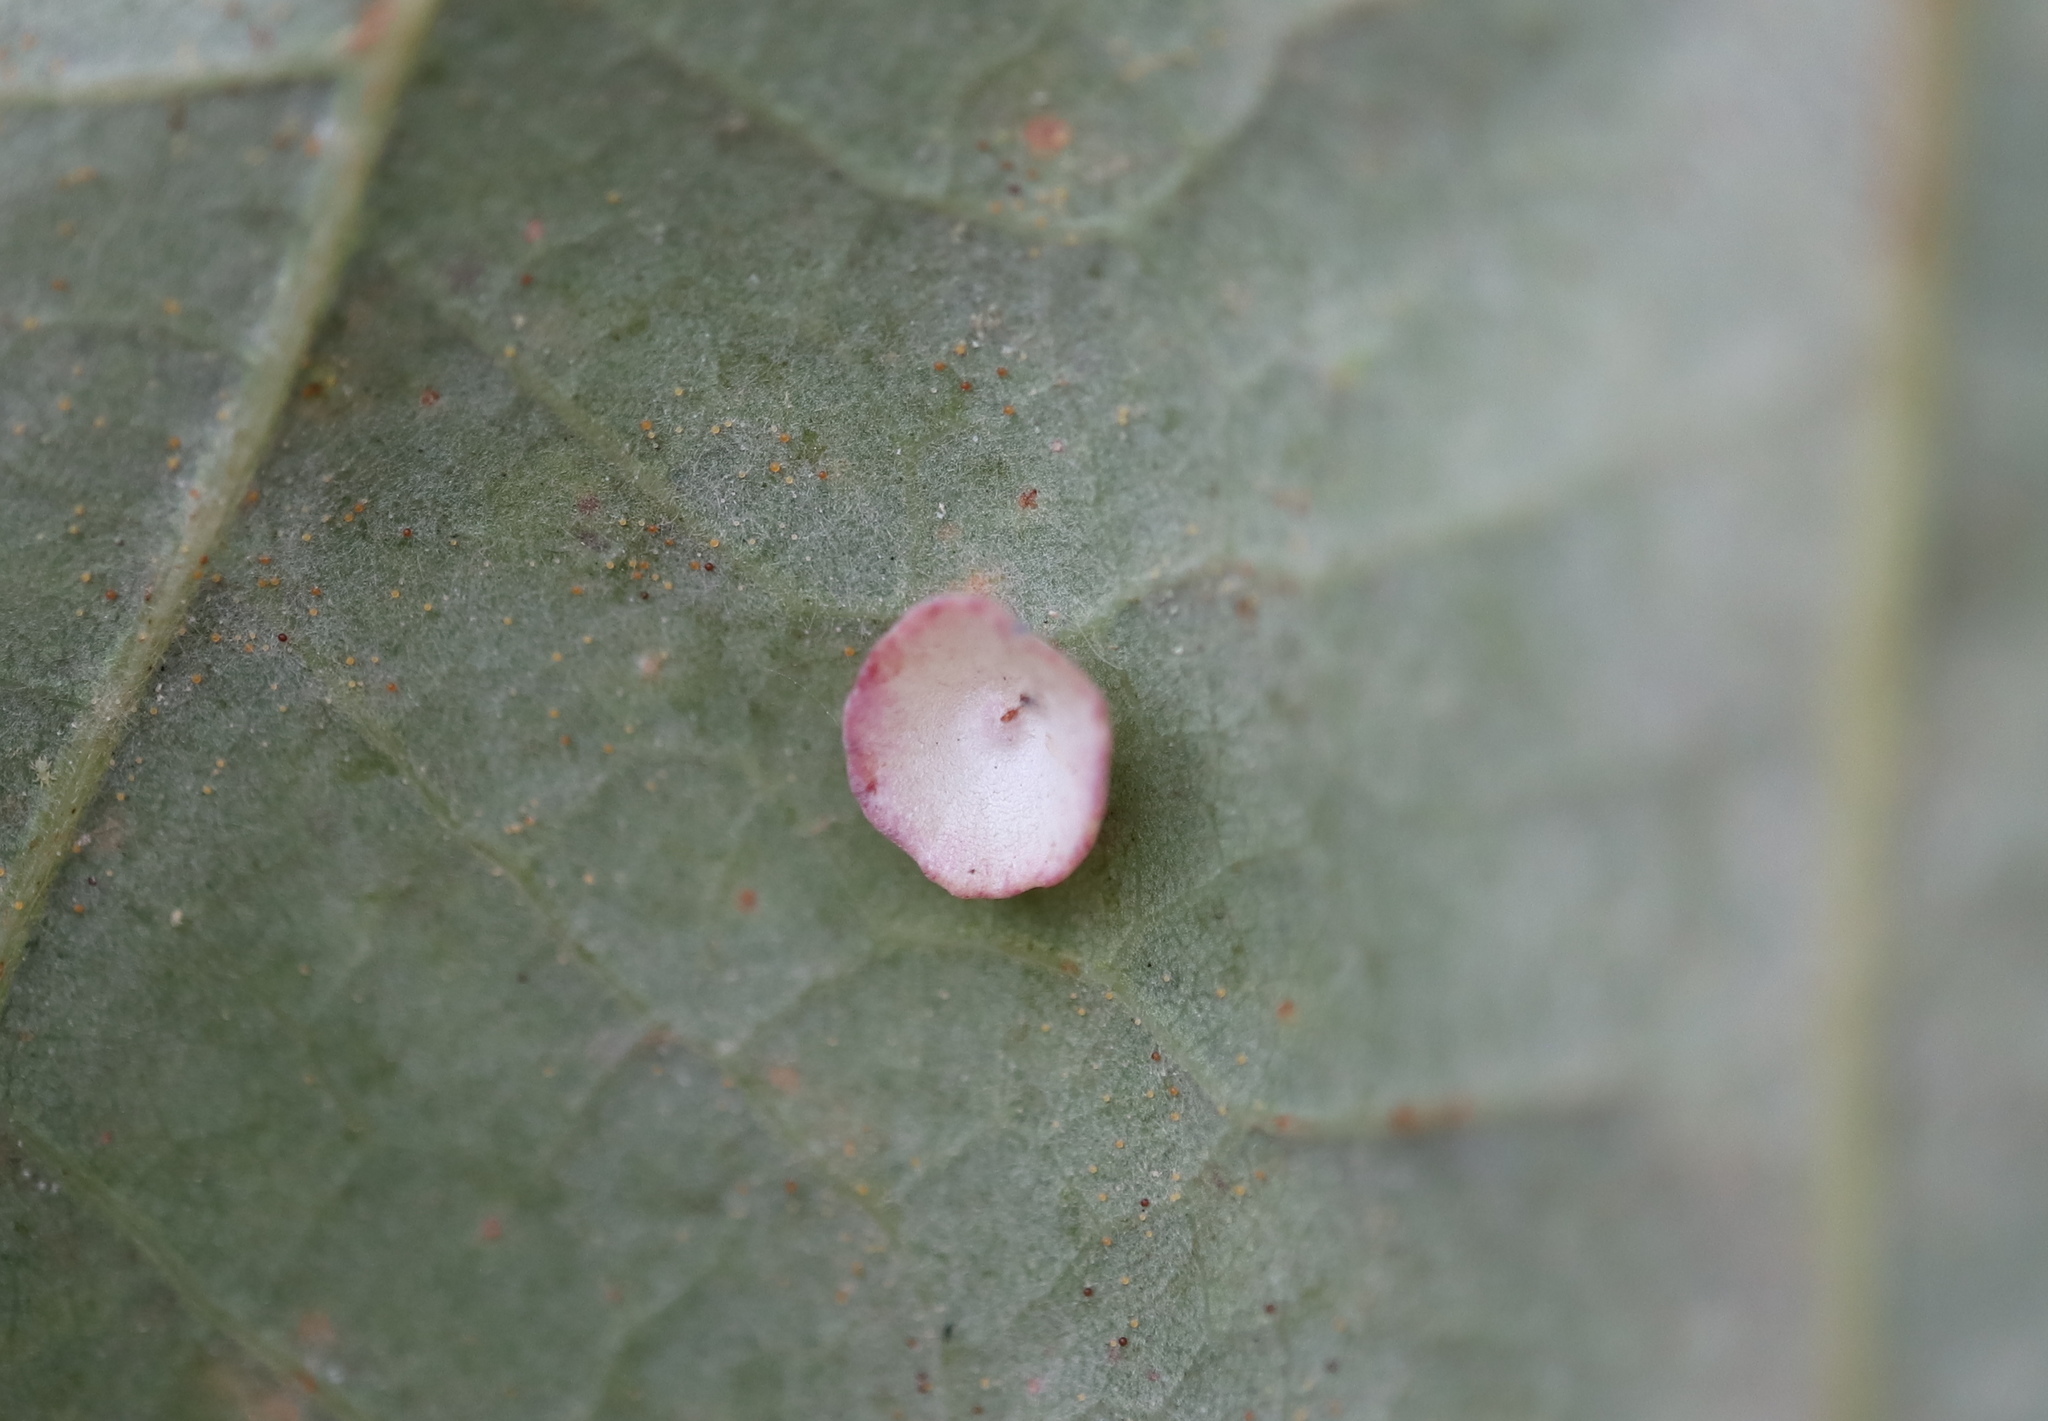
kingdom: Animalia
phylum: Arthropoda
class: Insecta
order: Hymenoptera
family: Cynipidae
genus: Phylloteras
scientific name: Phylloteras poculum
